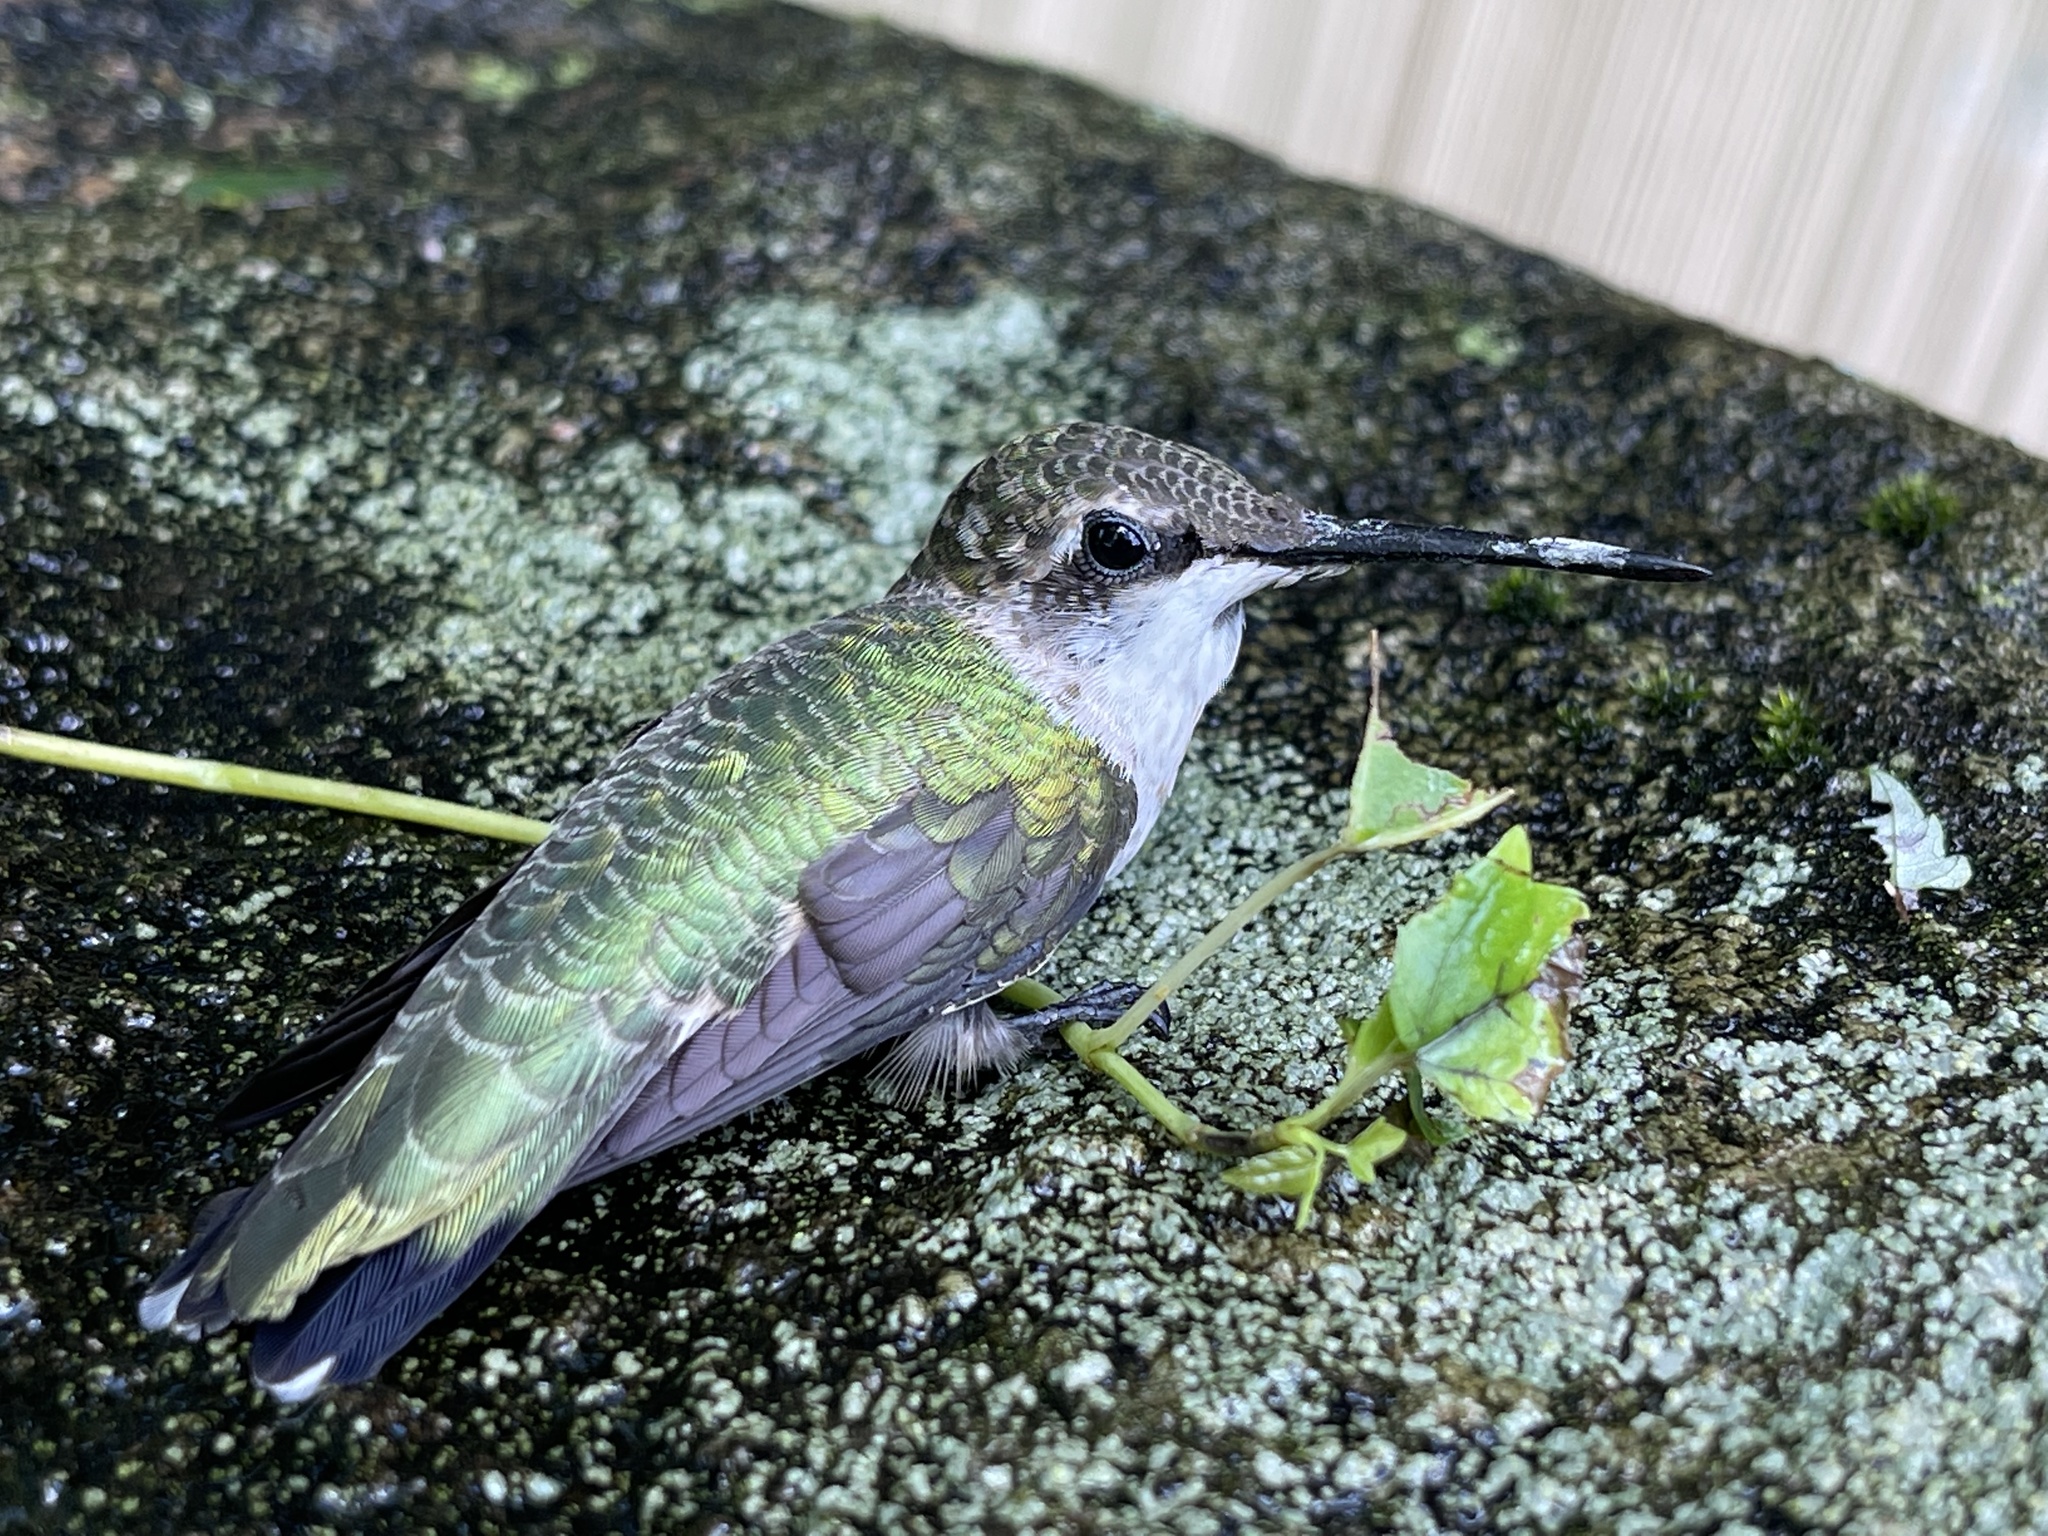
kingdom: Animalia
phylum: Chordata
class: Aves
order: Apodiformes
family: Trochilidae
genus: Archilochus
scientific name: Archilochus colubris
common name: Ruby-throated hummingbird
